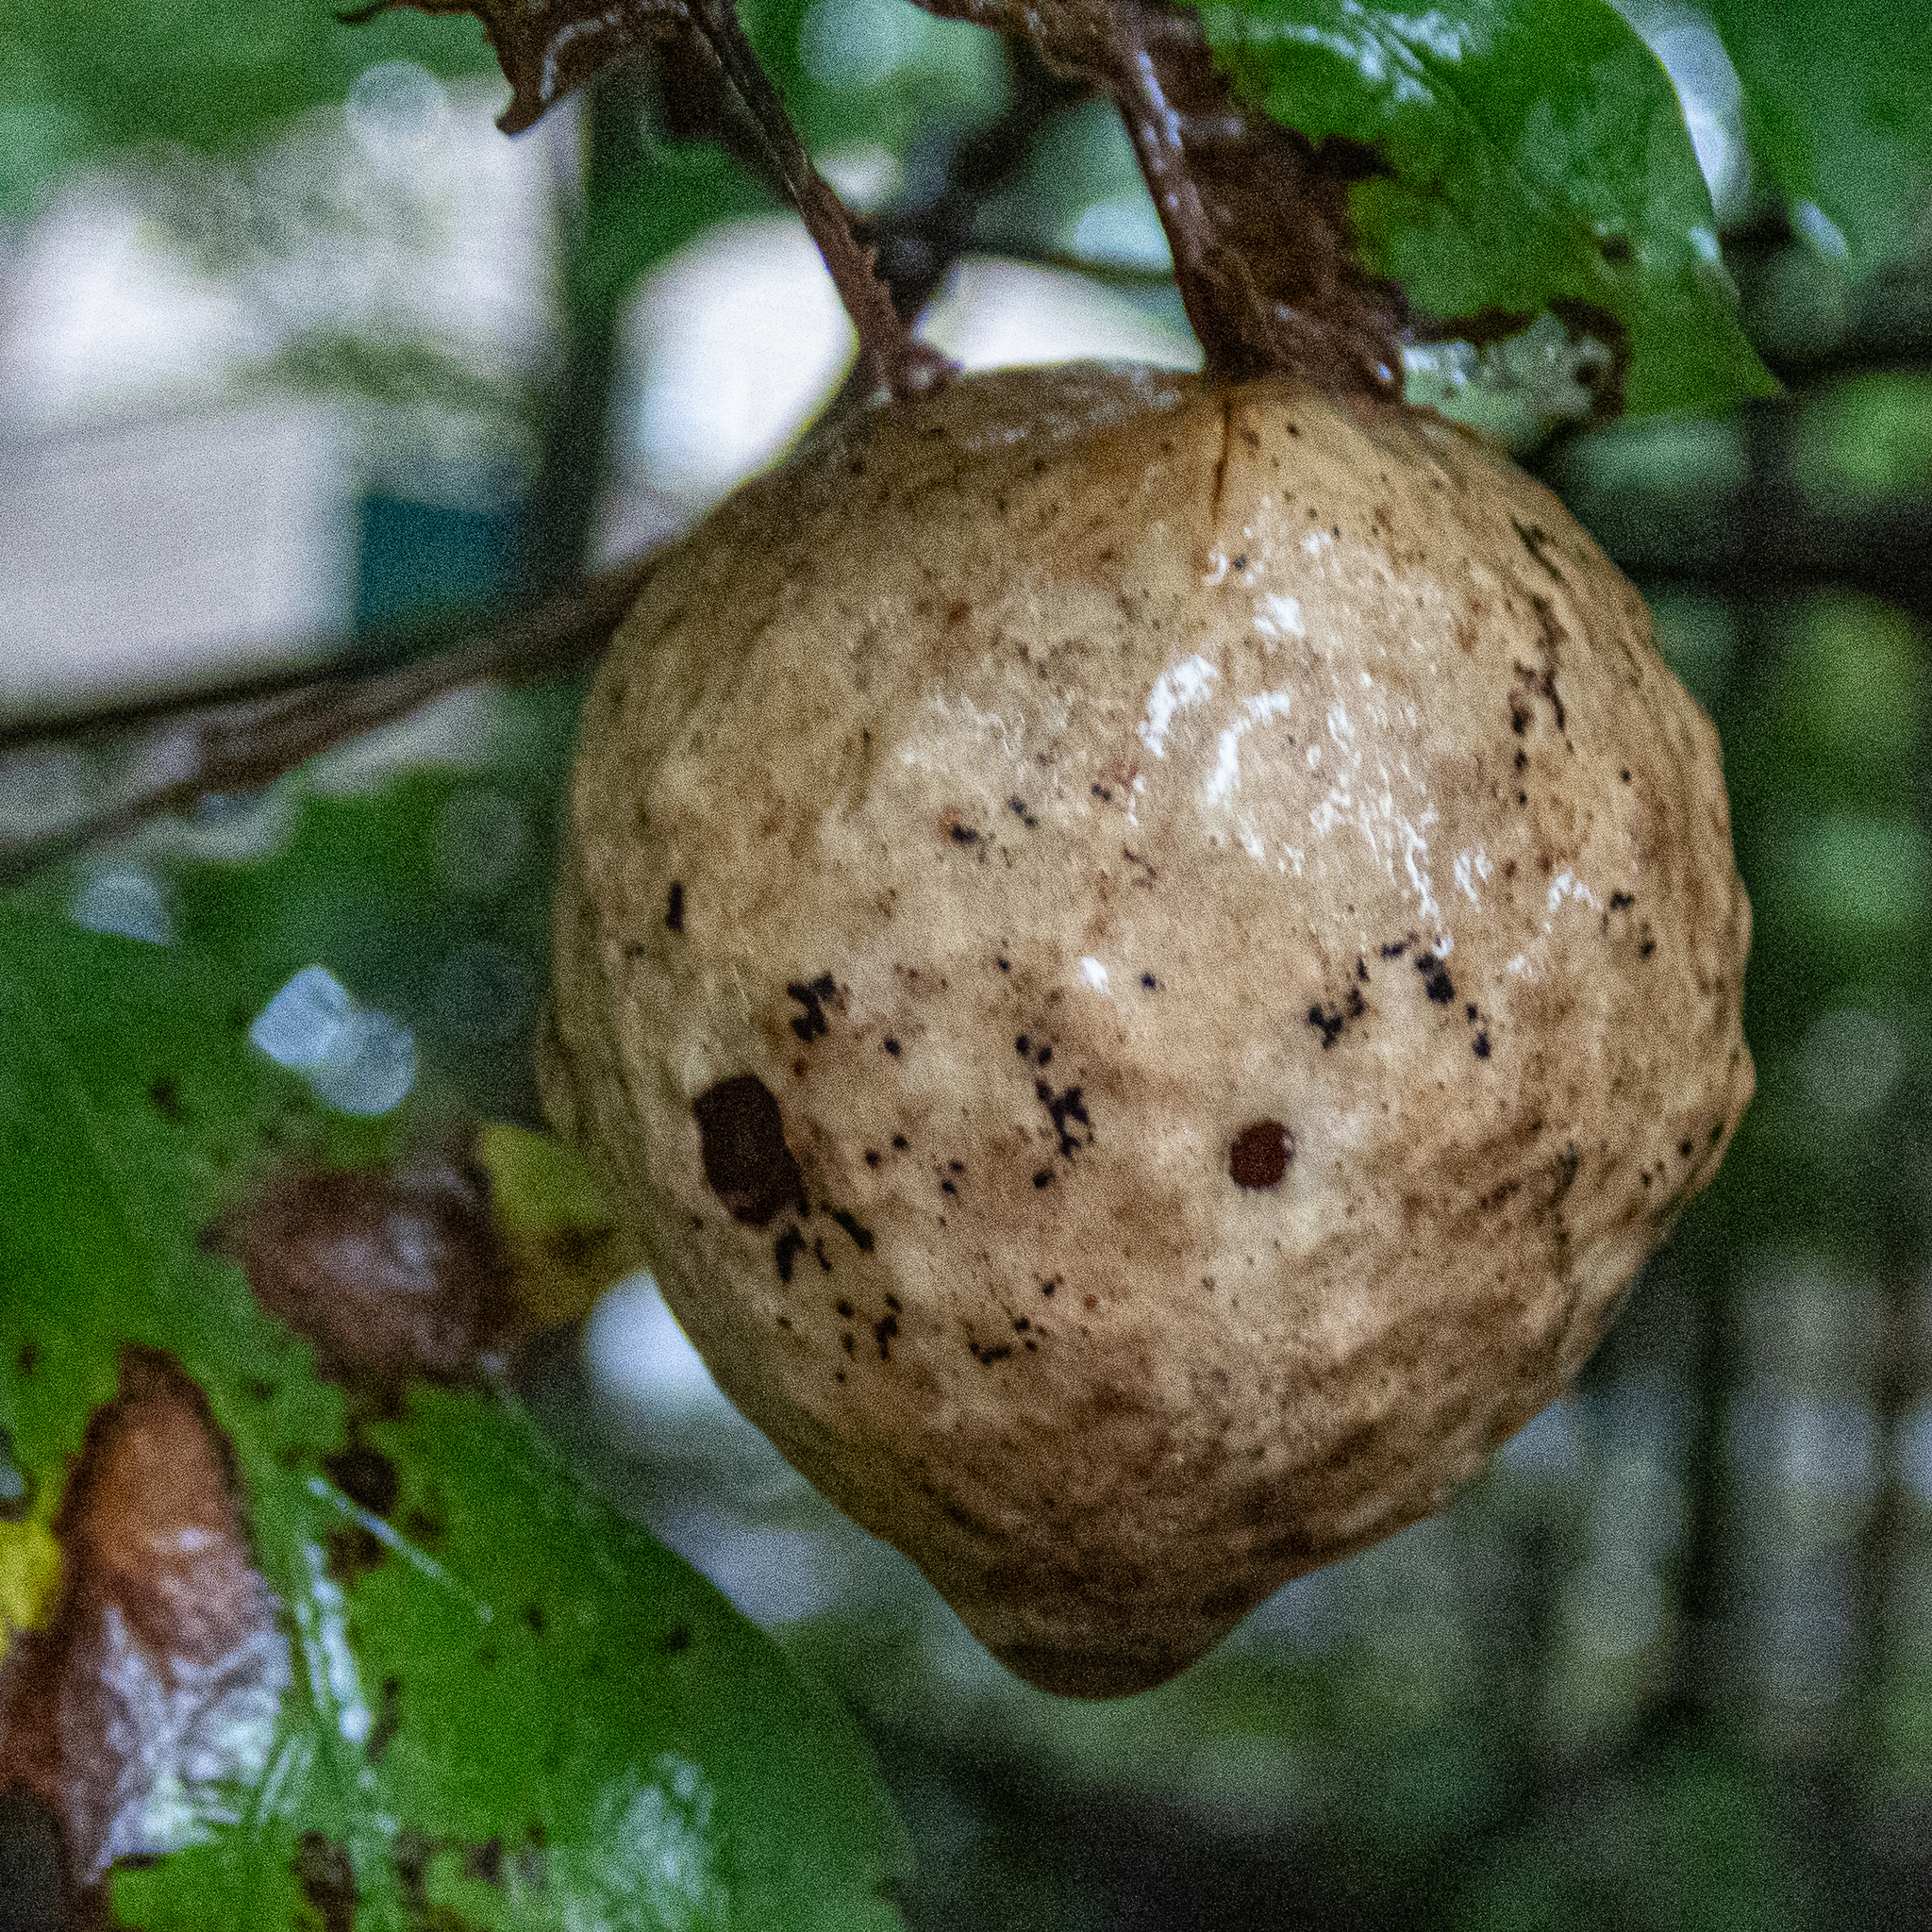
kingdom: Animalia
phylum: Arthropoda
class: Insecta
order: Hymenoptera
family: Cynipidae
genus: Amphibolips
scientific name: Amphibolips
